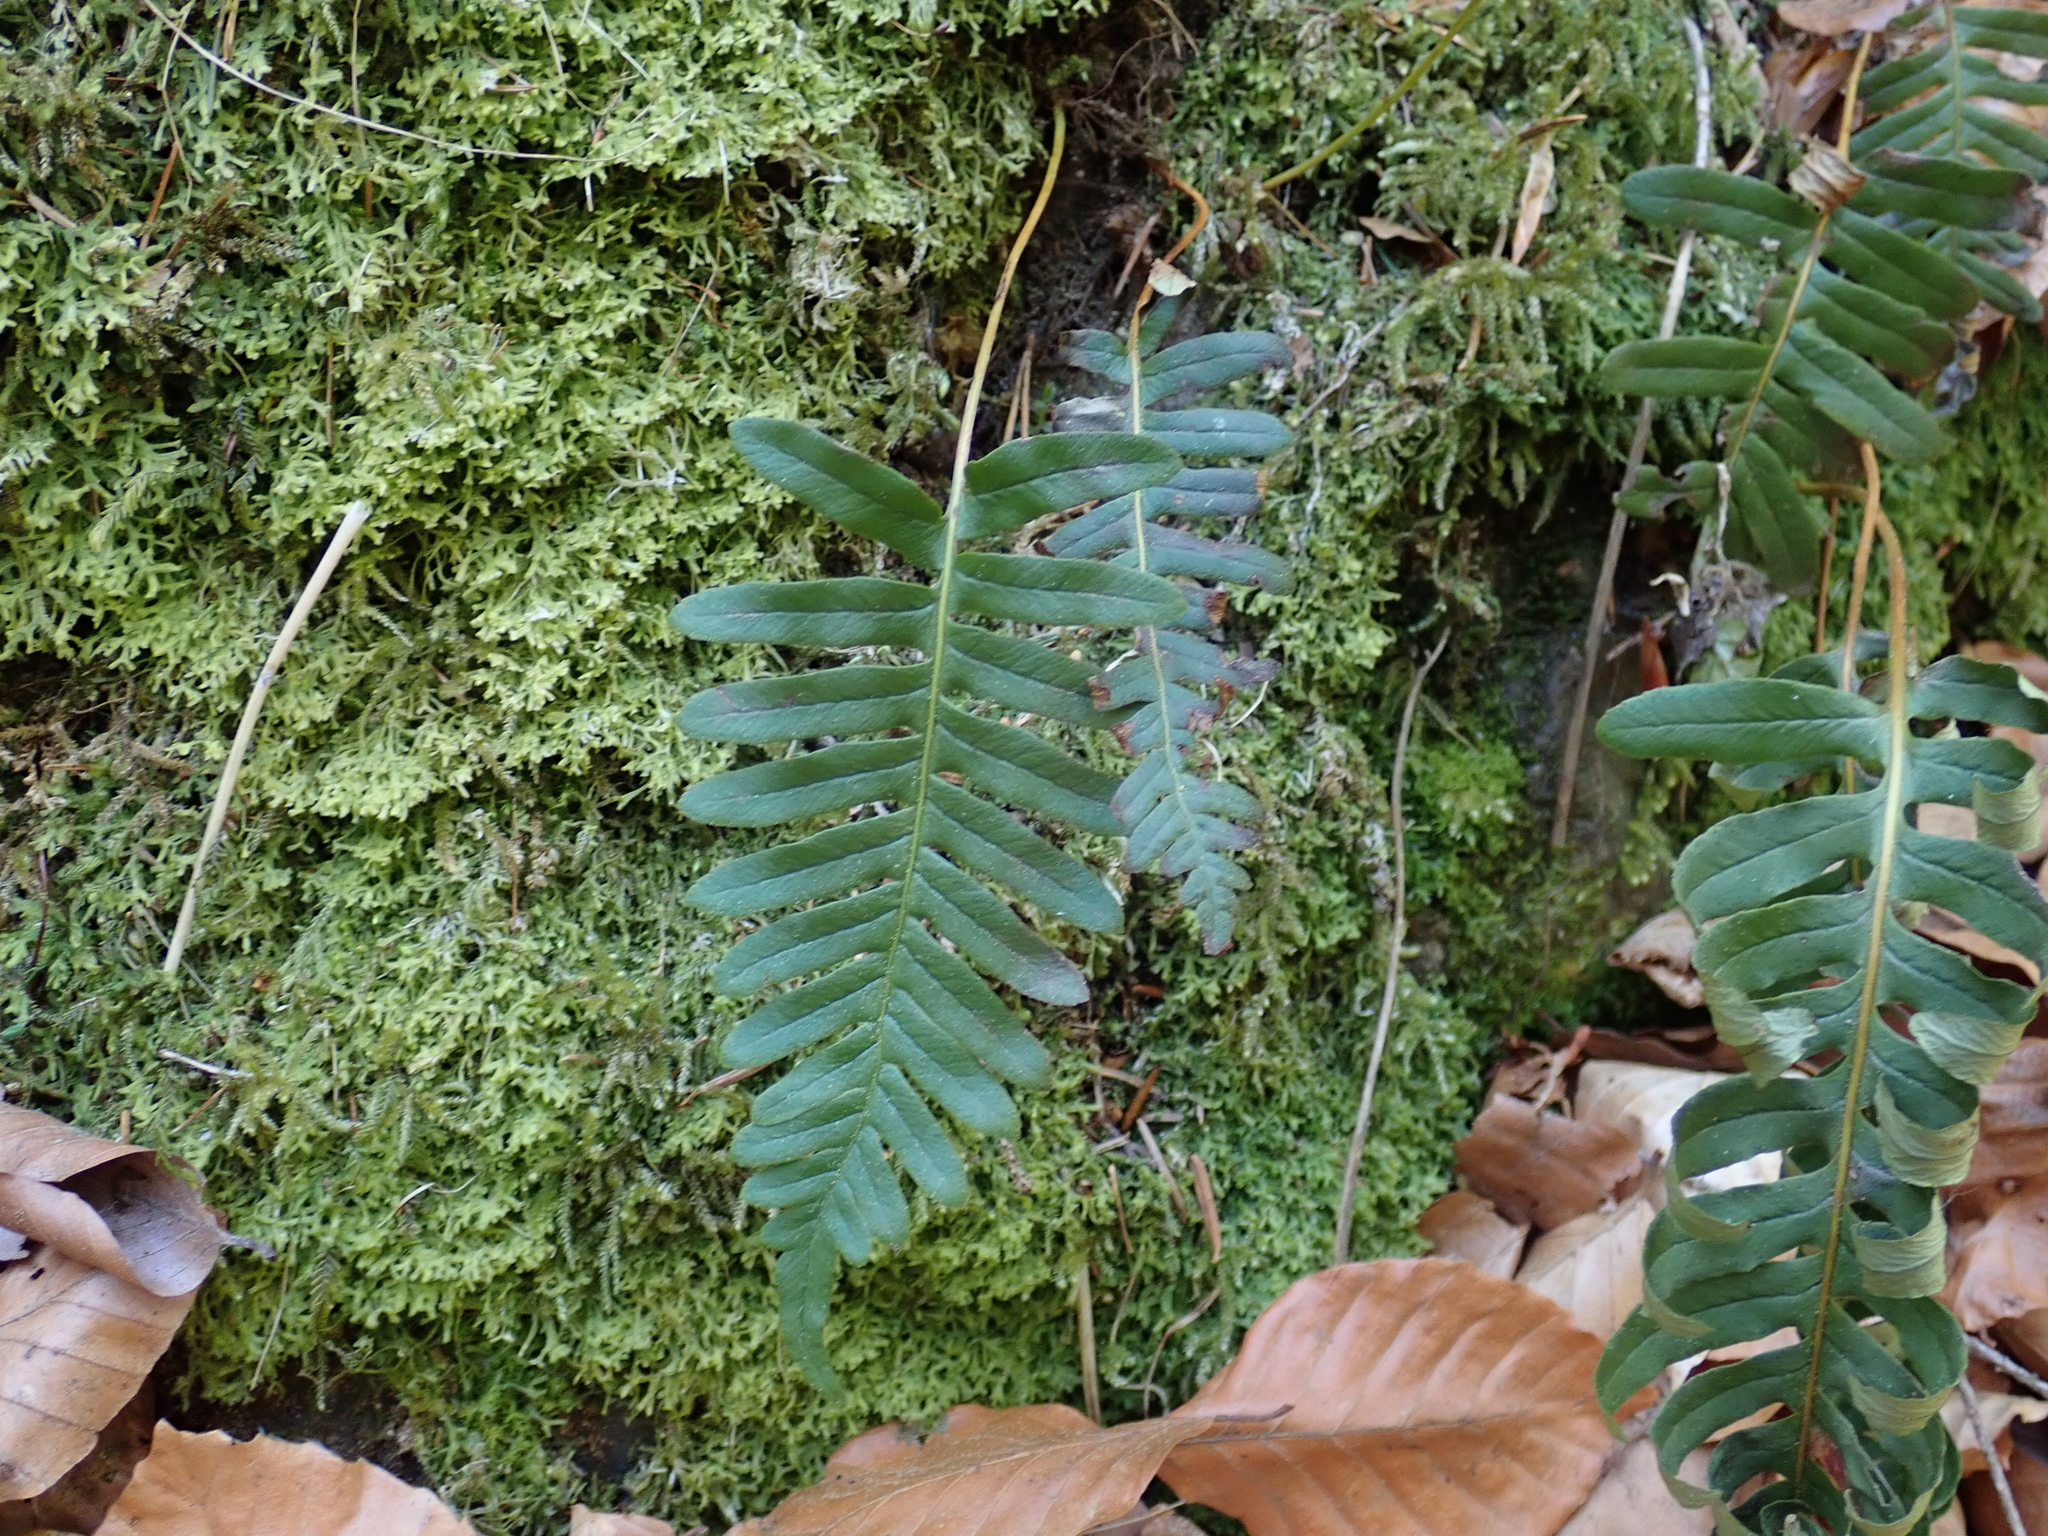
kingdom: Plantae
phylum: Tracheophyta
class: Polypodiopsida
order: Polypodiales
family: Polypodiaceae
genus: Polypodium
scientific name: Polypodium vulgare
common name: Common polypody
